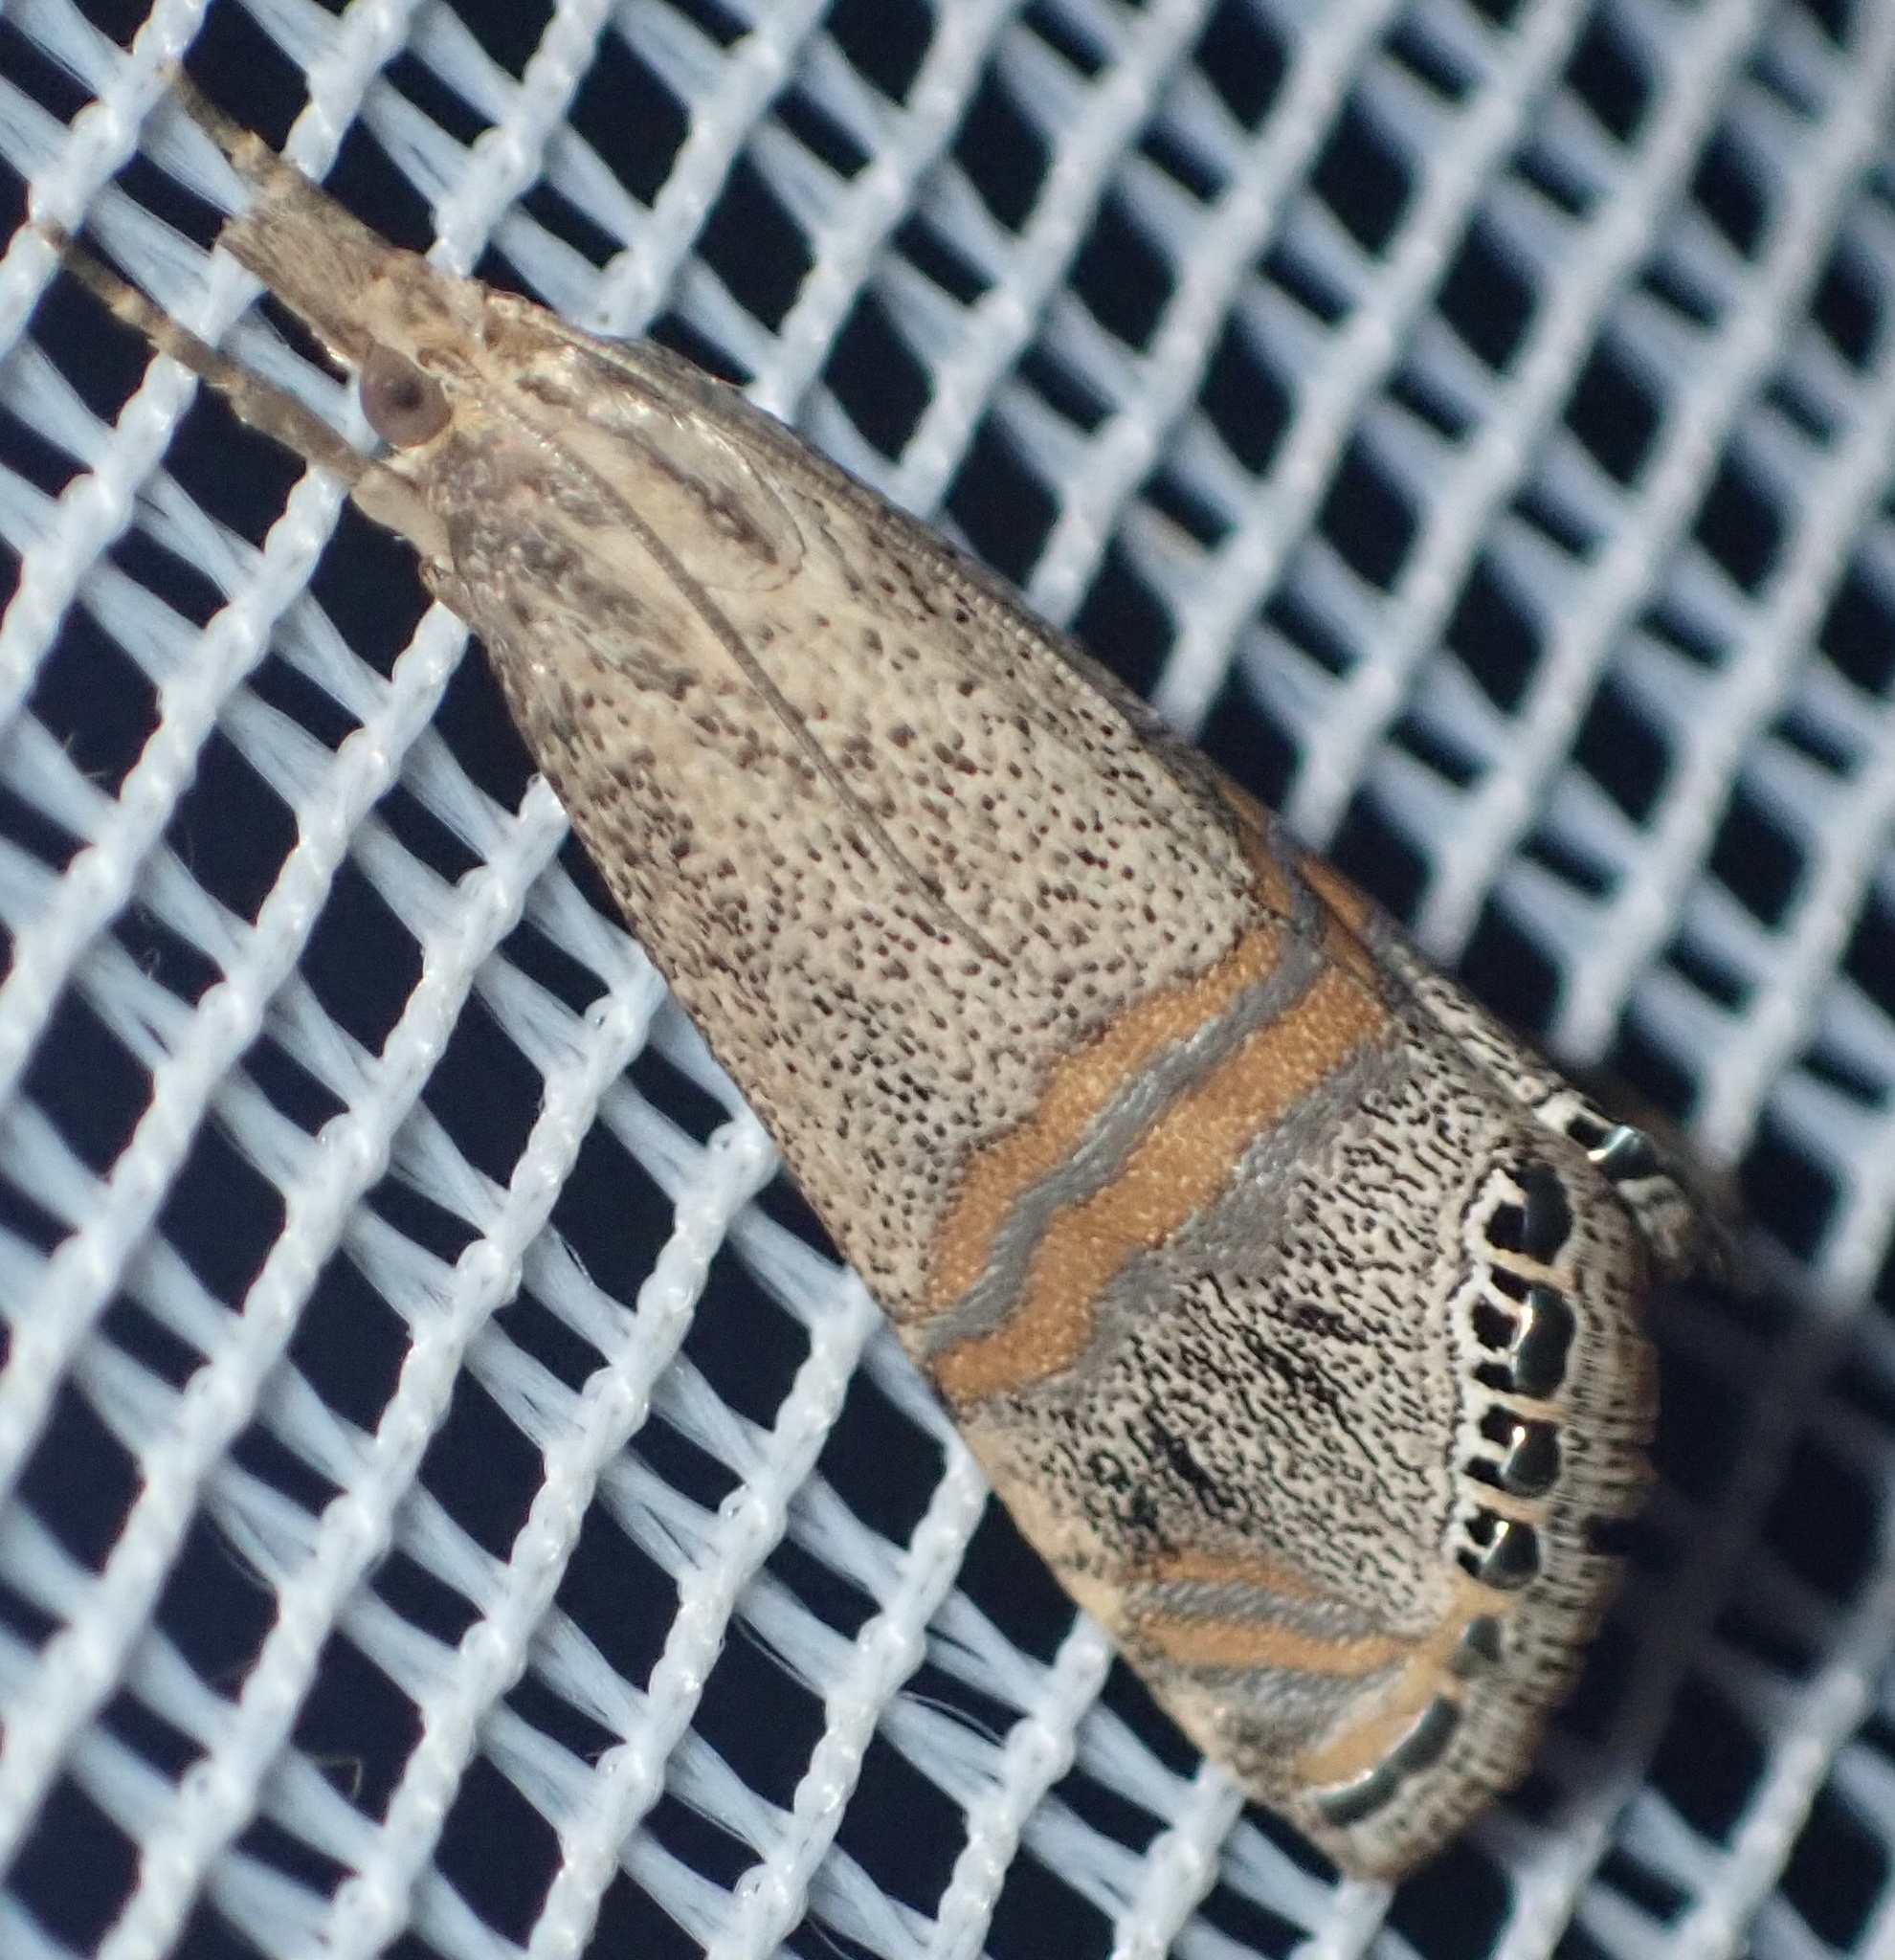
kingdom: Animalia
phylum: Arthropoda
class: Insecta
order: Lepidoptera
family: Crambidae
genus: Euchromius
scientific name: Euchromius ocellea
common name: Necklace veneer moth
